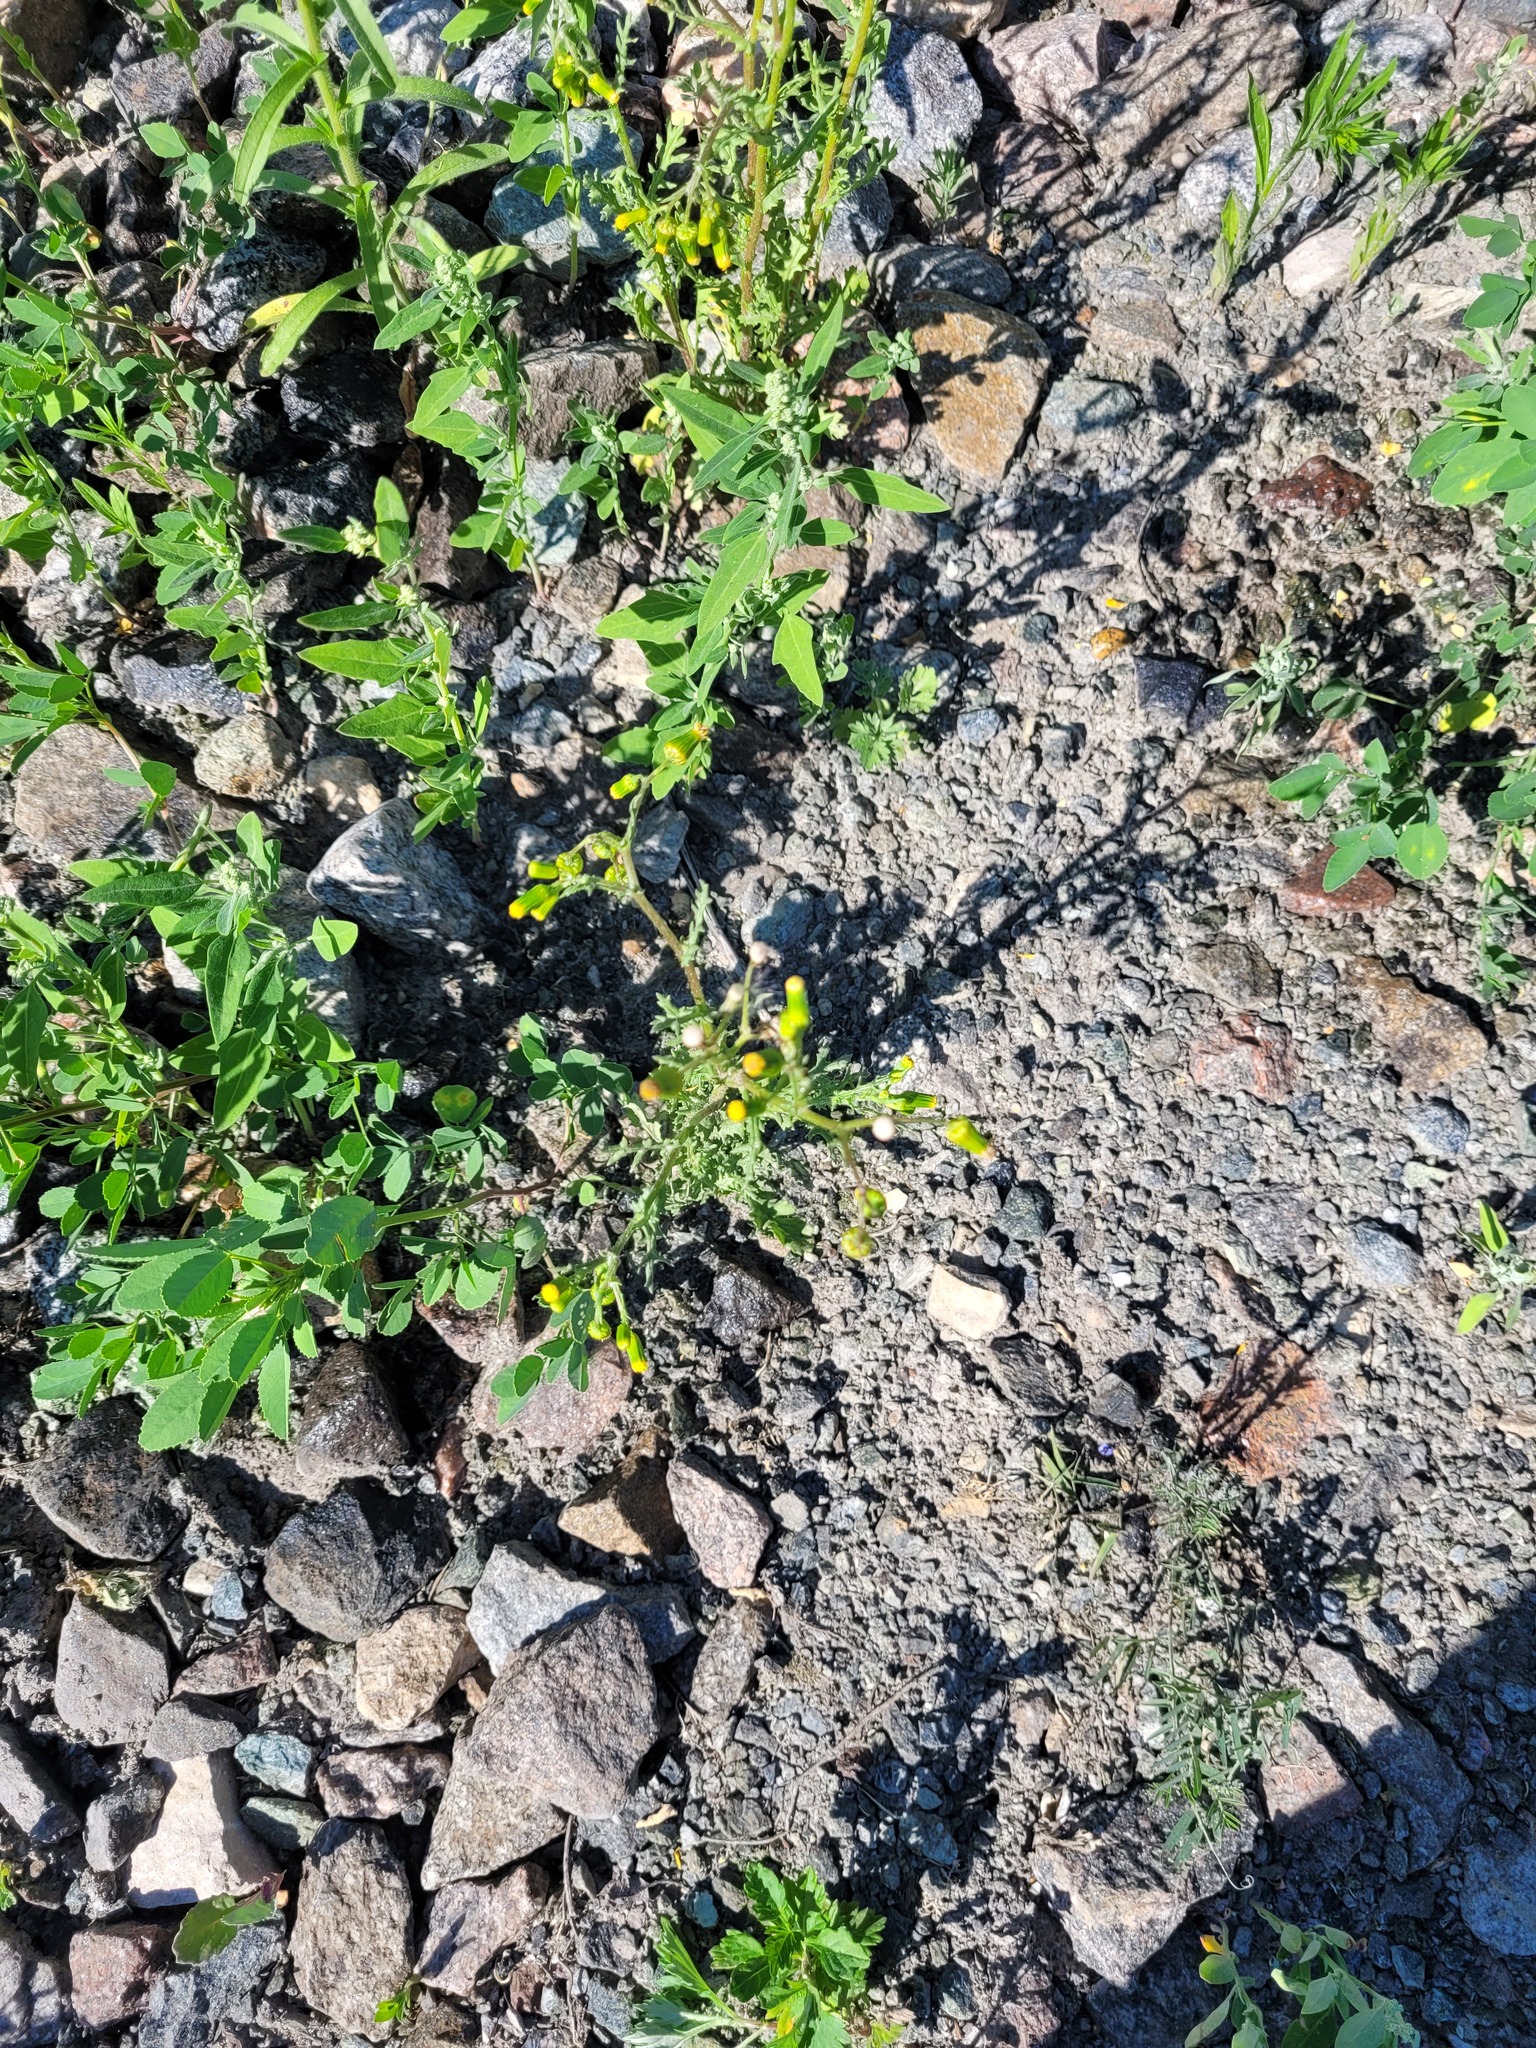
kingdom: Plantae
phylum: Tracheophyta
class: Magnoliopsida
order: Asterales
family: Asteraceae
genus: Senecio
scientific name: Senecio vulgaris
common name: Old-man-in-the-spring
